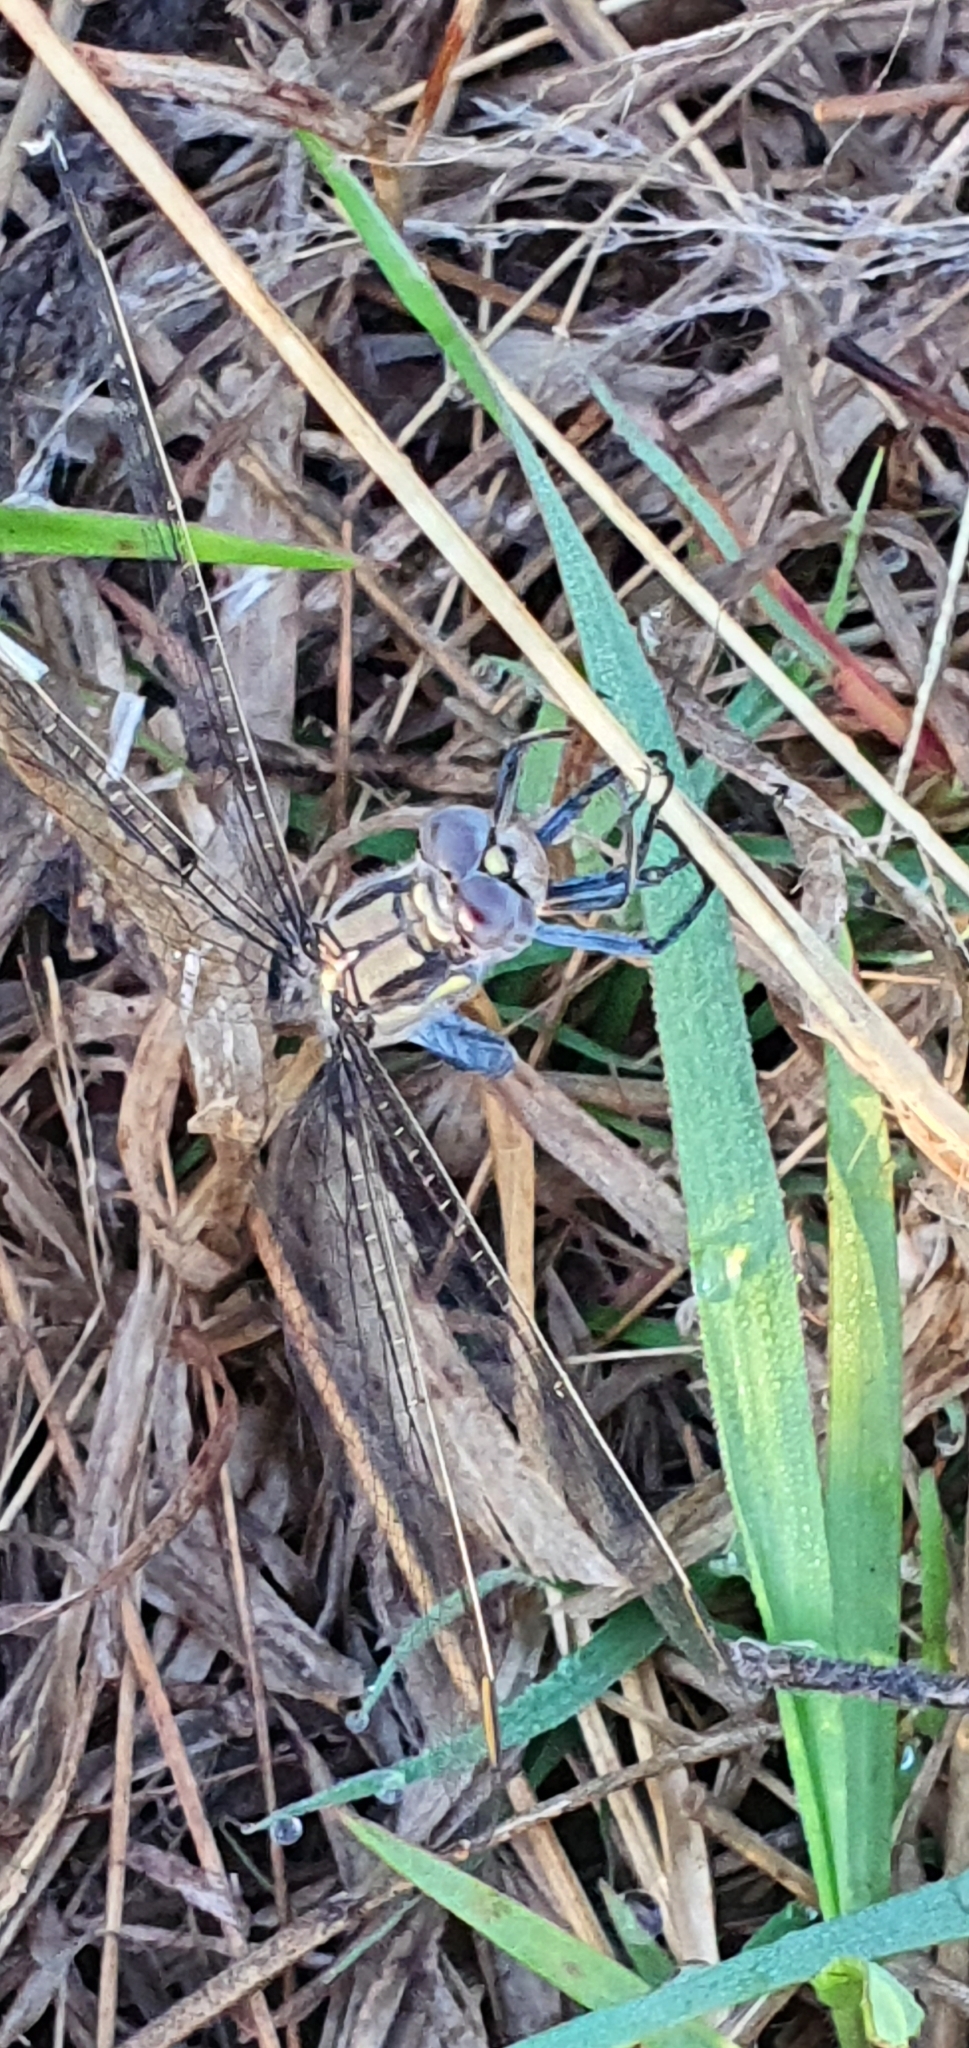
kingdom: Animalia
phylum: Arthropoda
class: Insecta
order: Odonata
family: Libellulidae
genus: Orthetrum
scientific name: Orthetrum caledonicum
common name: Blue skimmer
